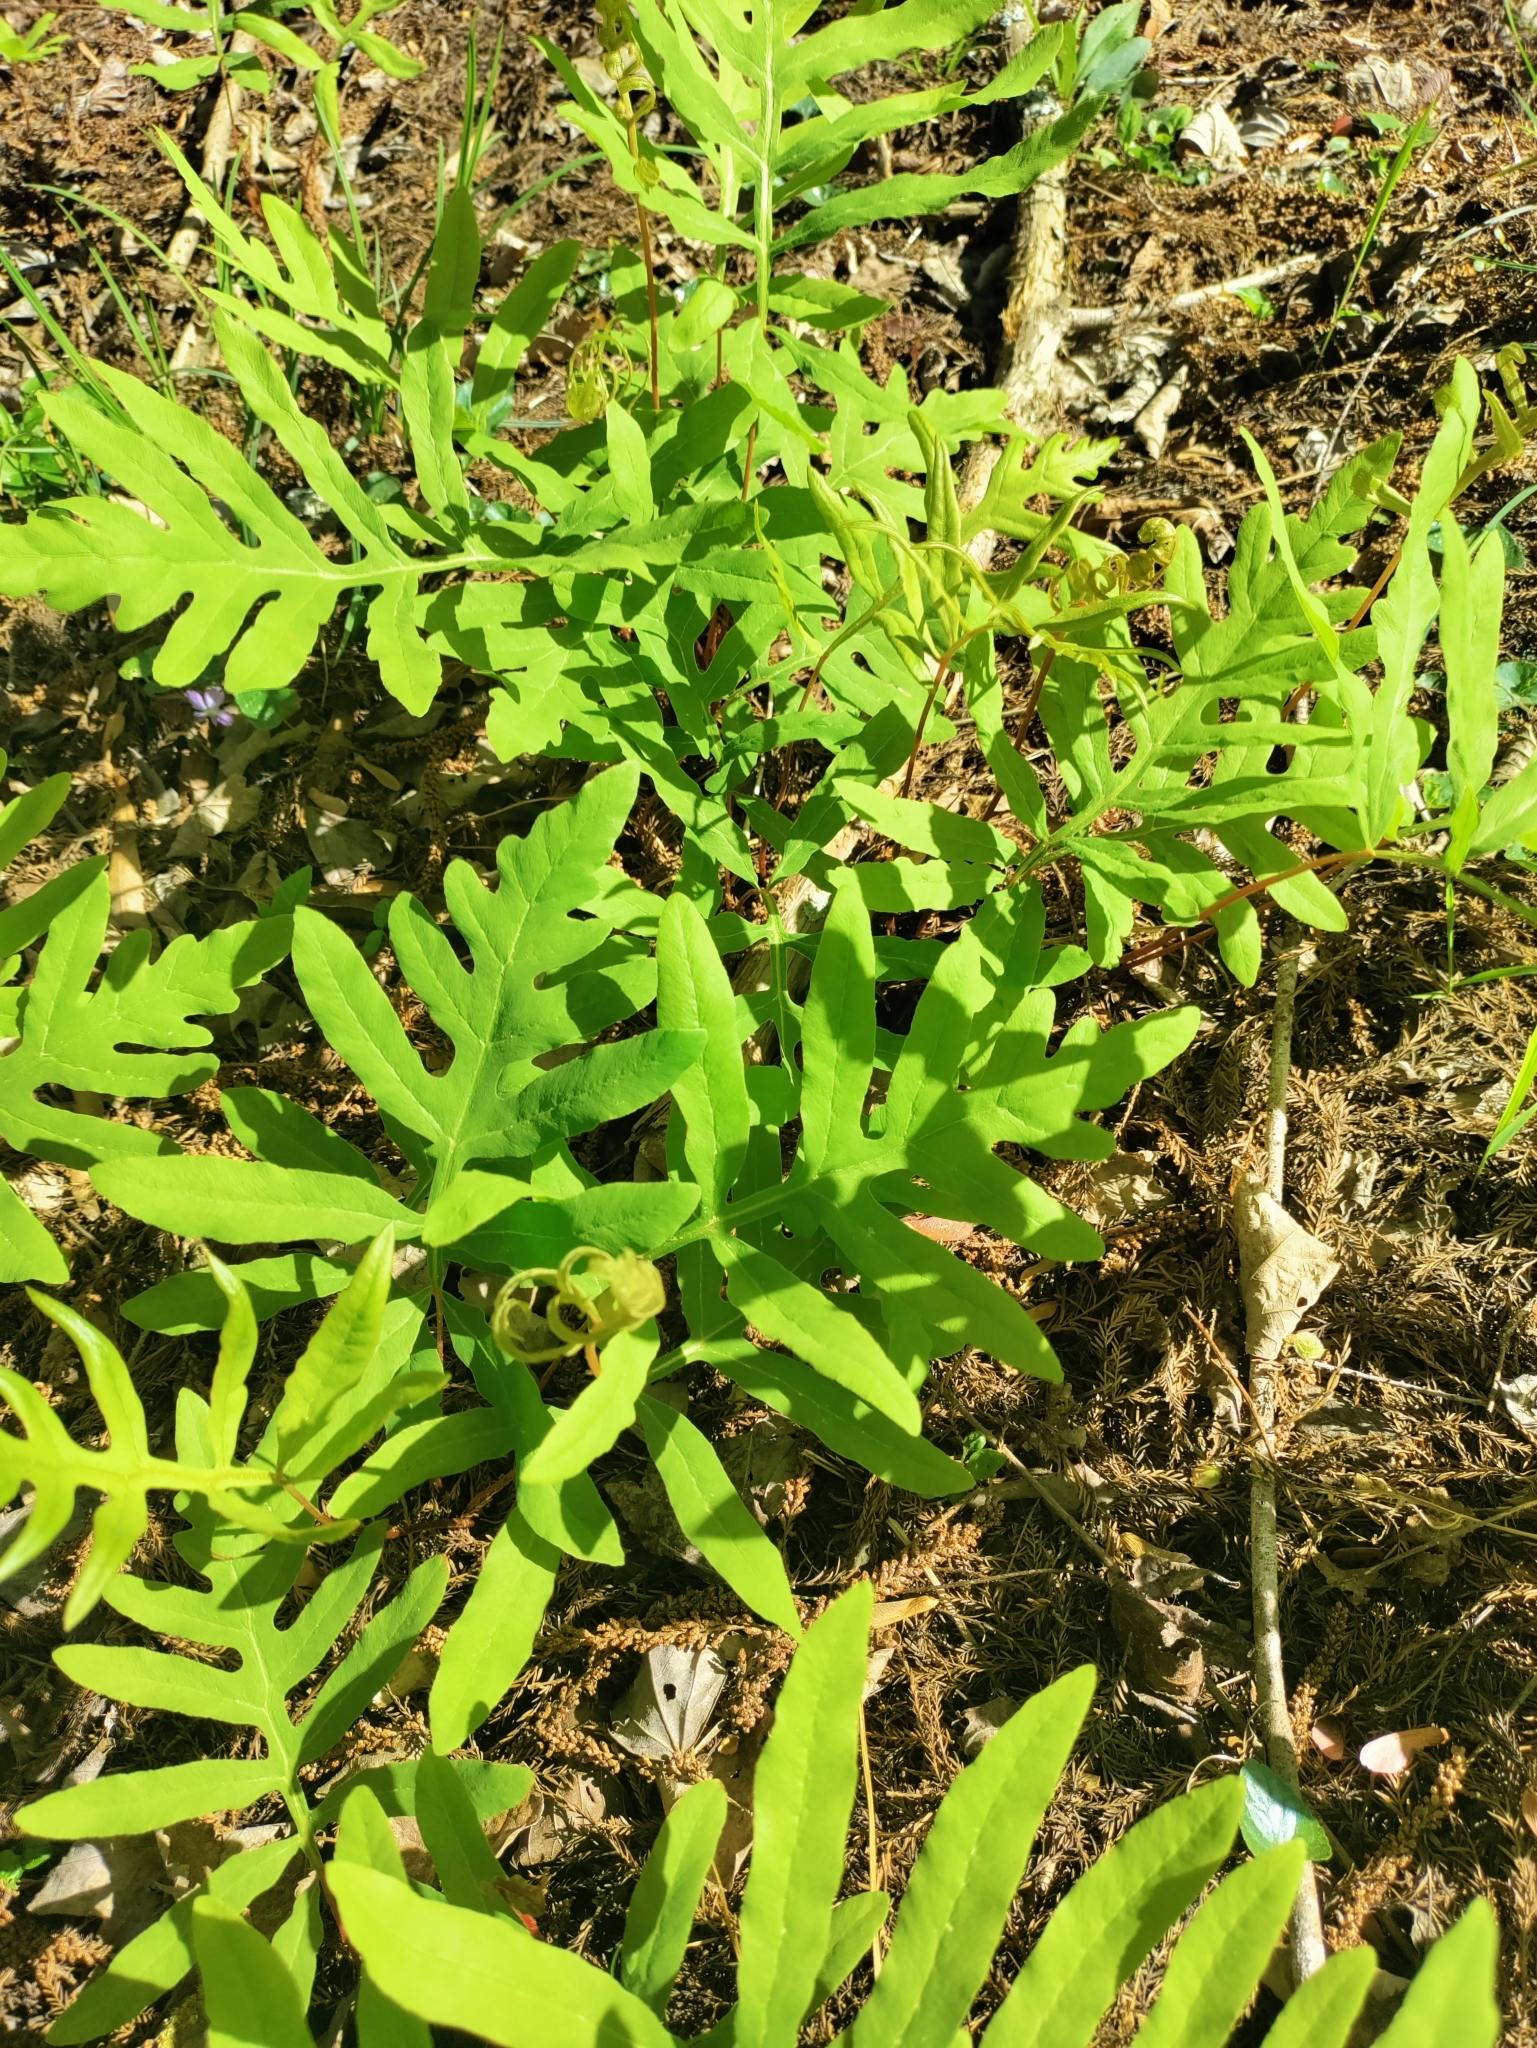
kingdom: Plantae
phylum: Tracheophyta
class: Polypodiopsida
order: Polypodiales
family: Onocleaceae
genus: Onoclea
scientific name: Onoclea sensibilis
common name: Sensitive fern
